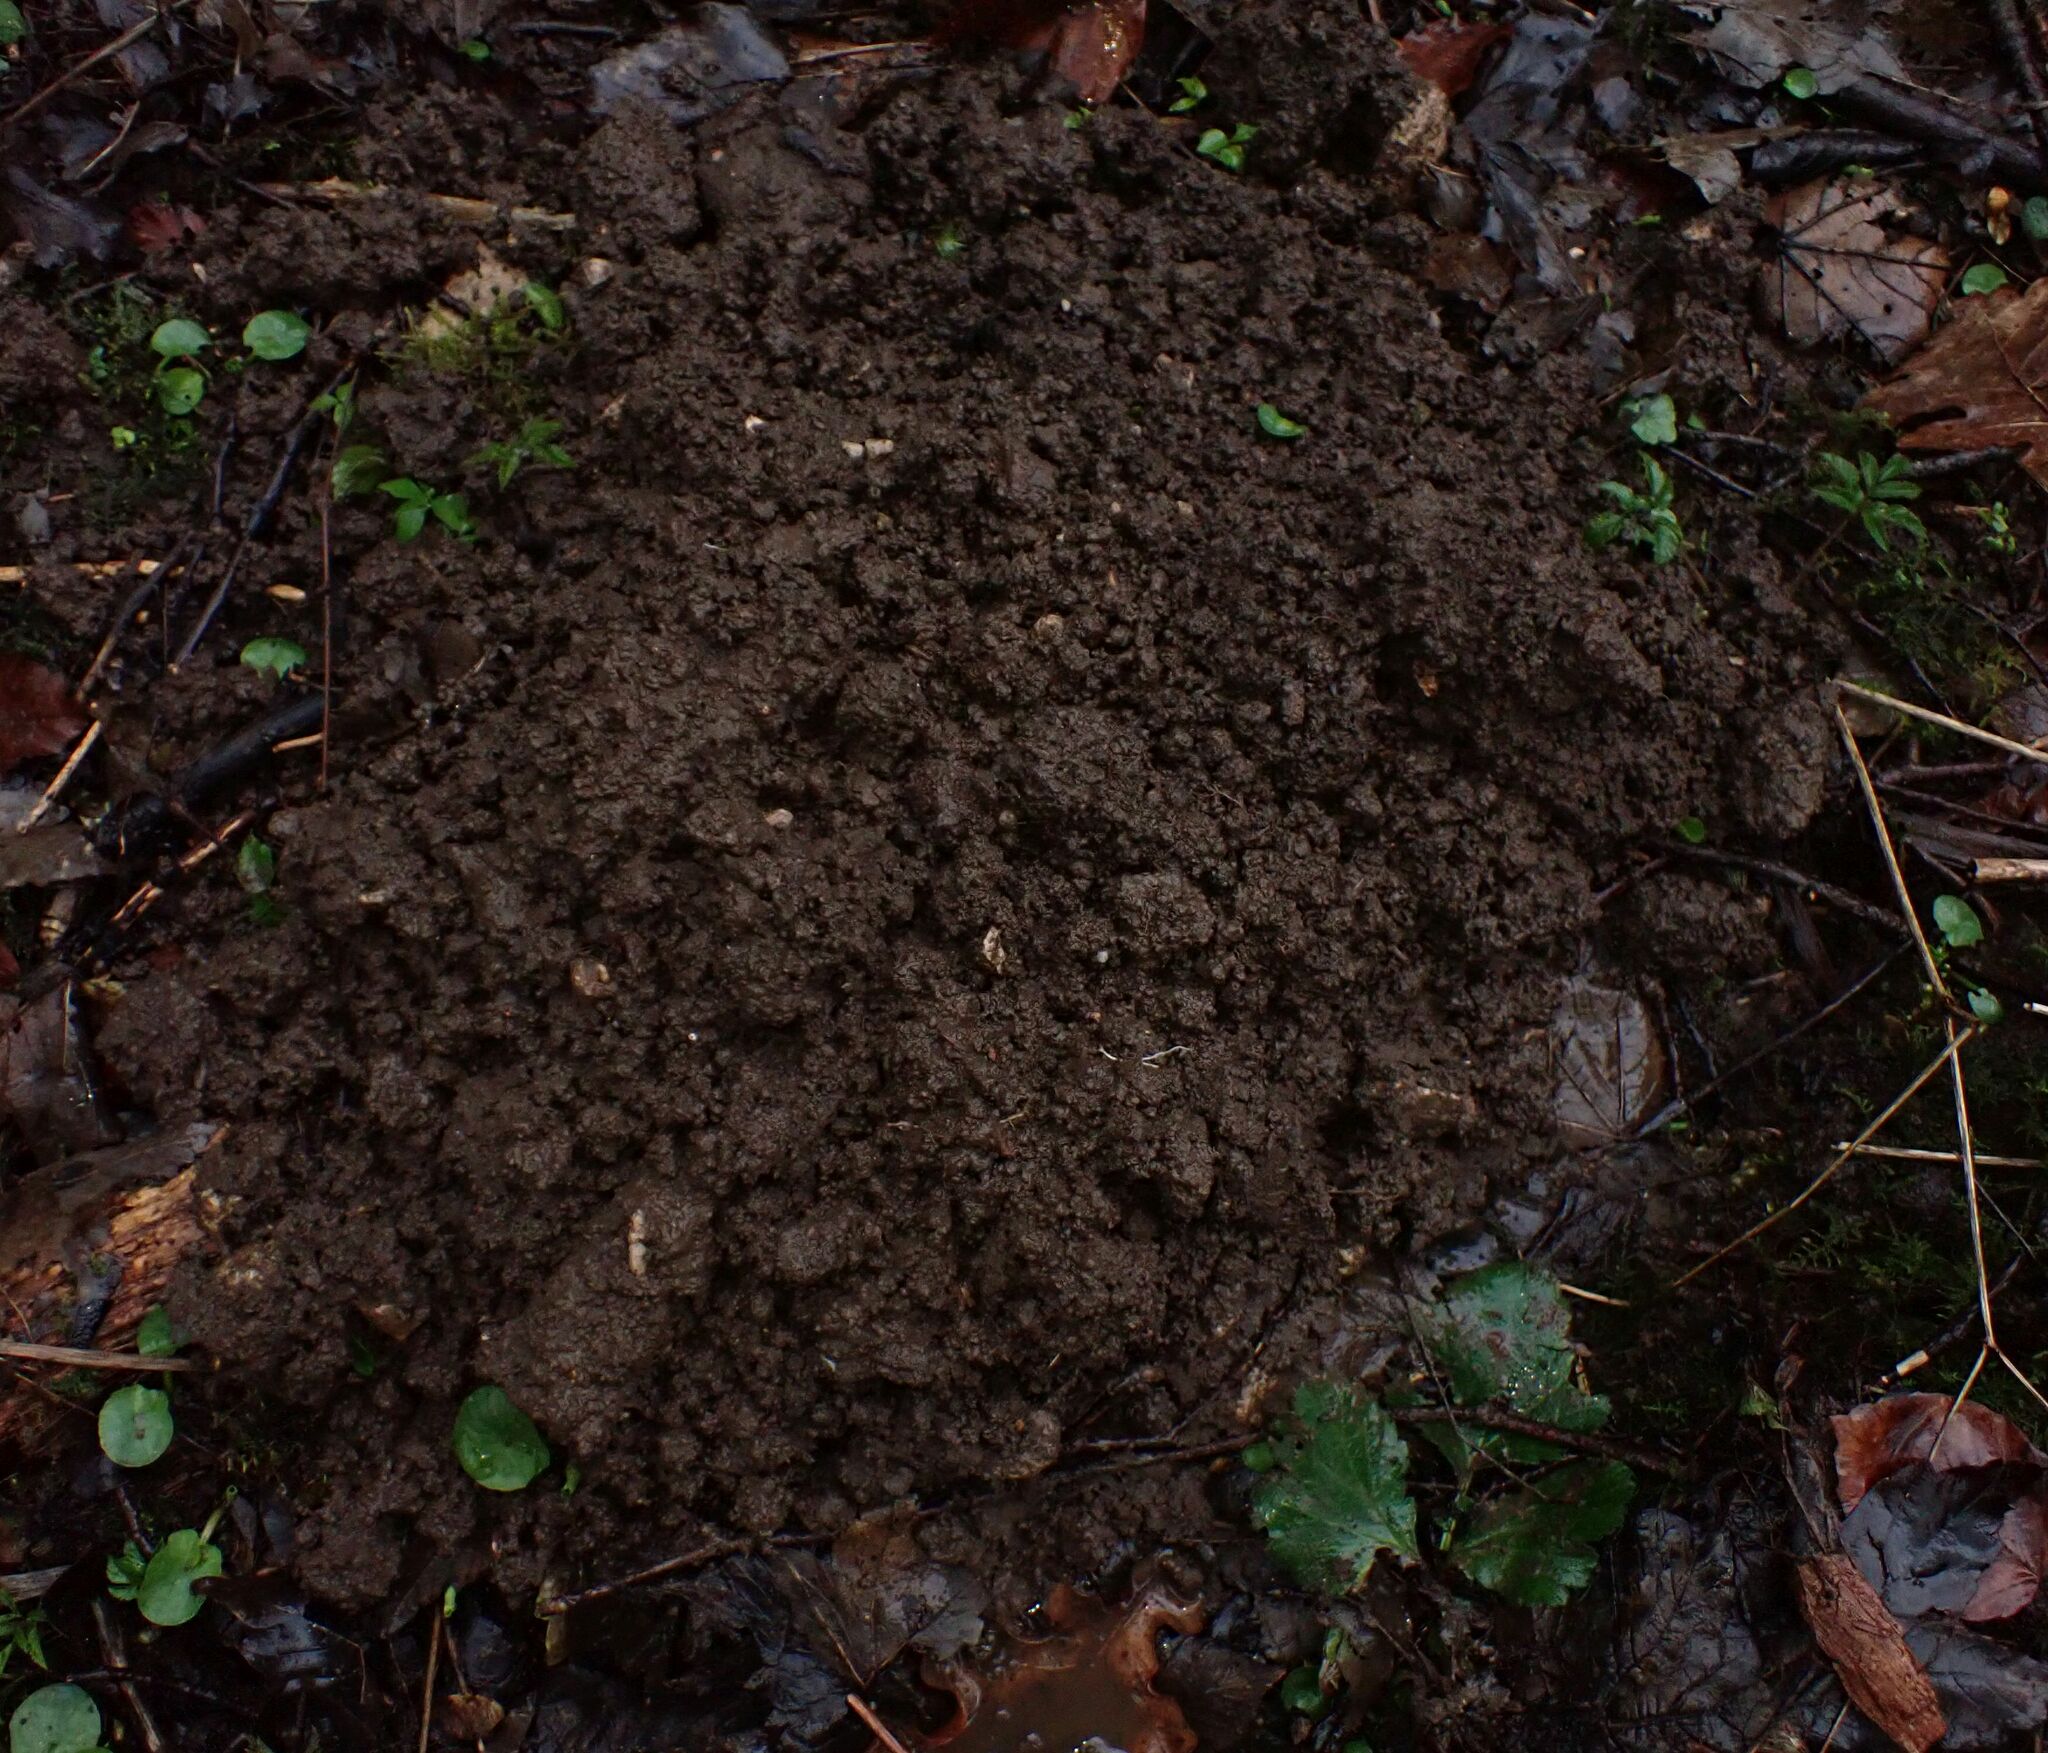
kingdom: Animalia
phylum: Chordata
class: Mammalia
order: Soricomorpha
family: Talpidae
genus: Talpa
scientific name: Talpa europaea
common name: European mole
